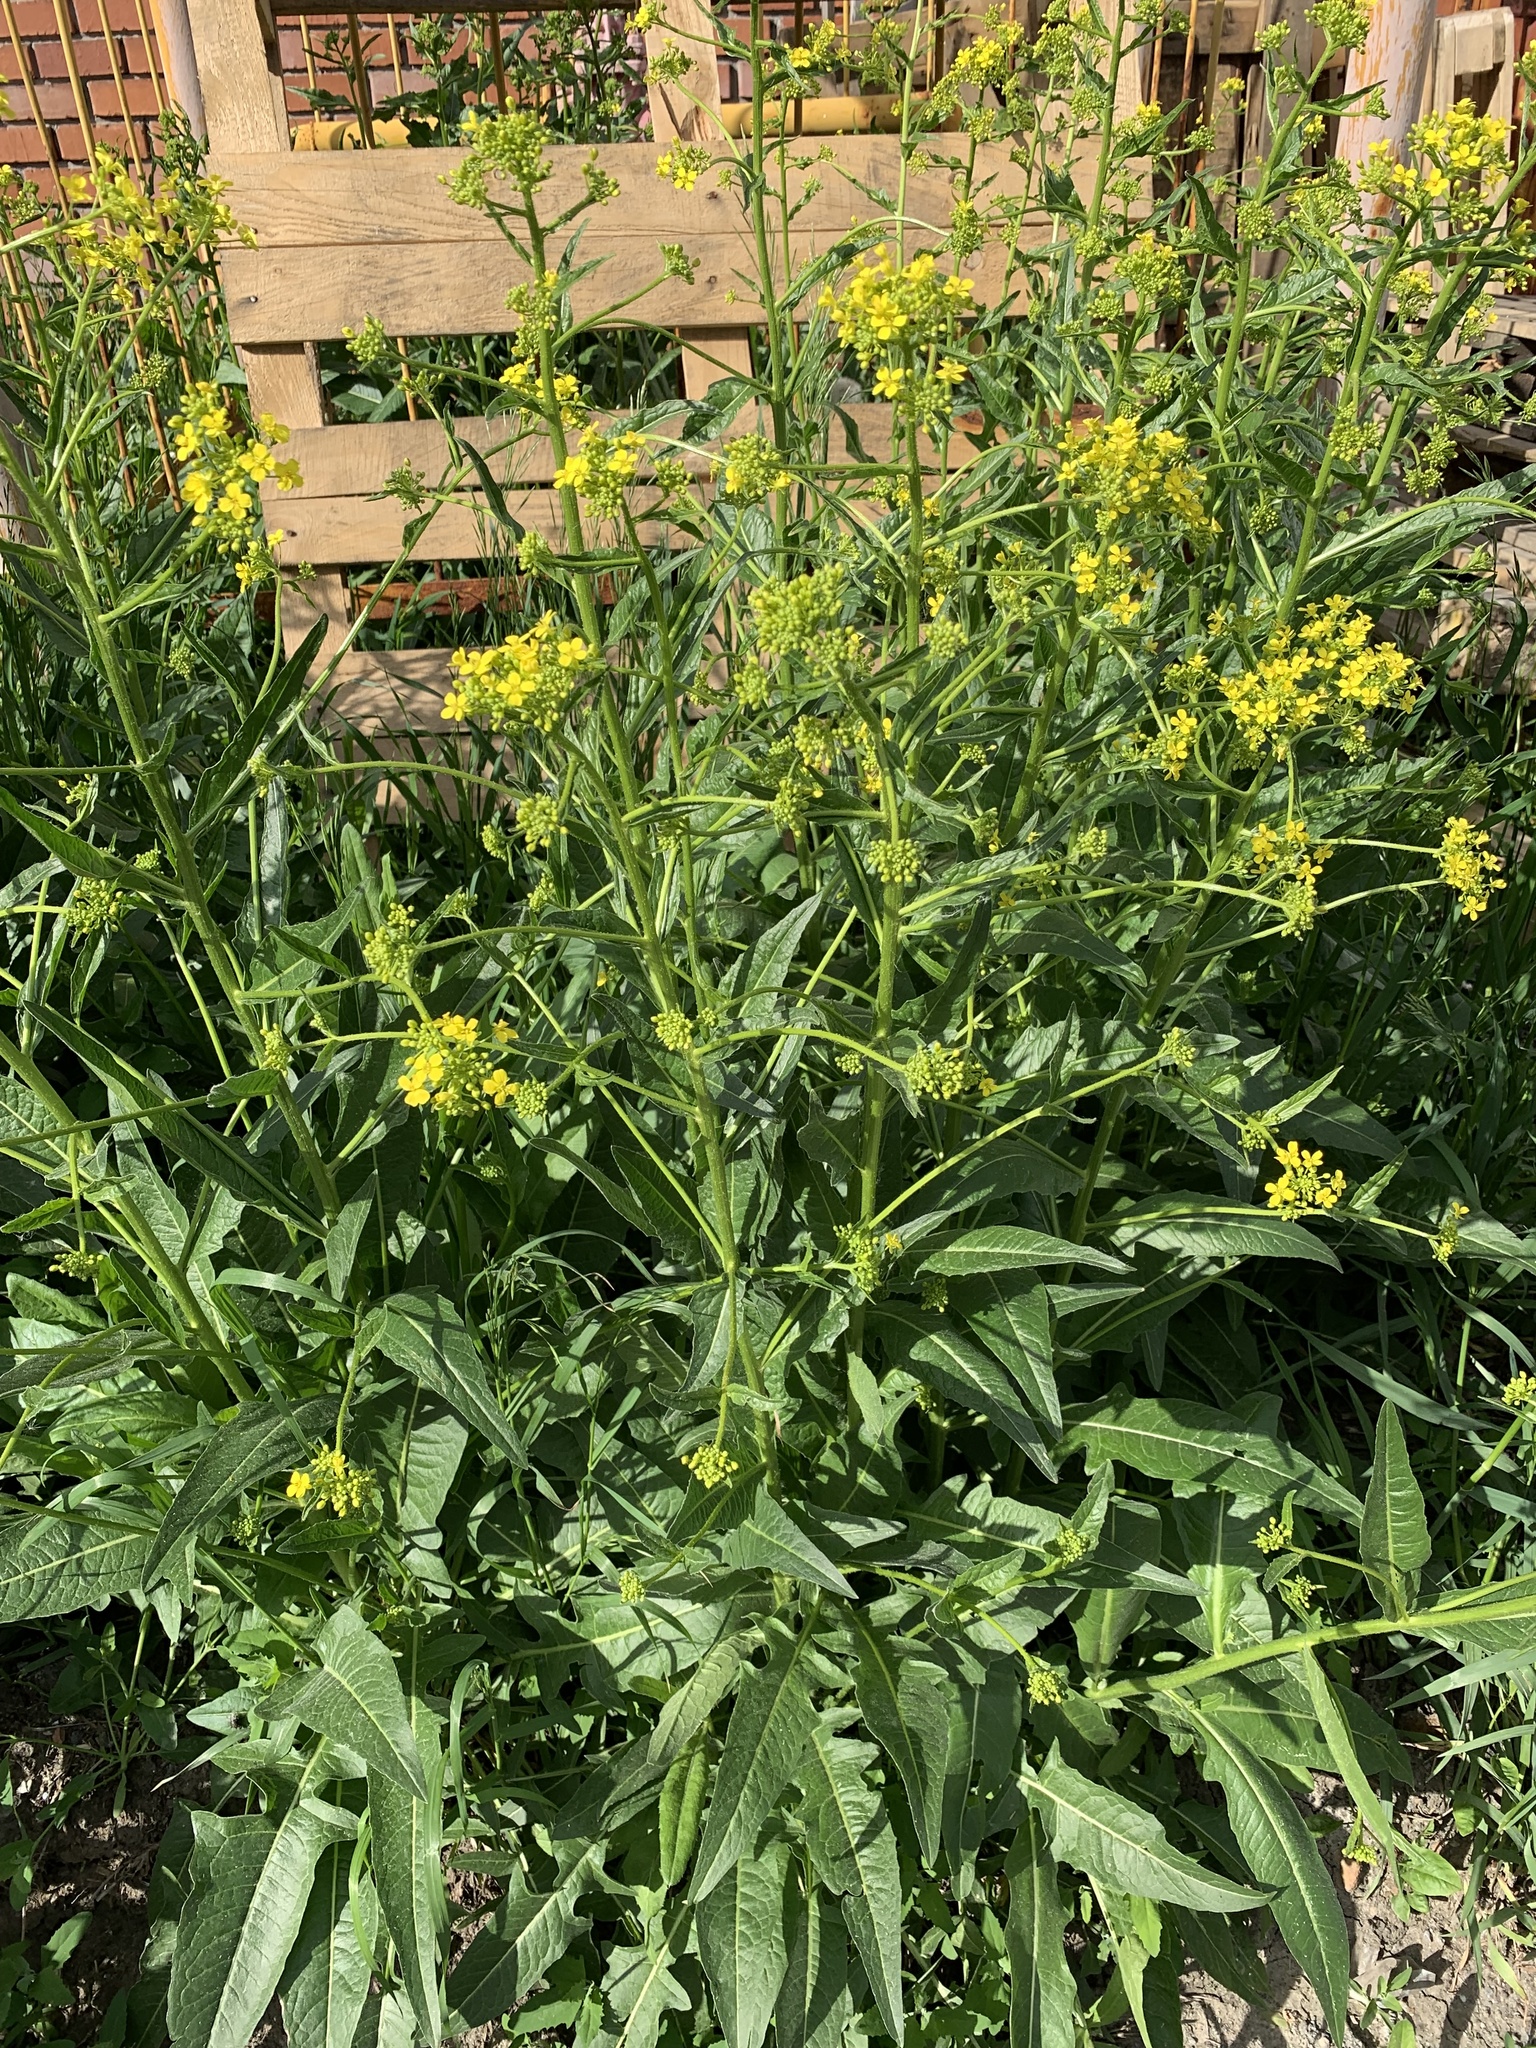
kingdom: Plantae
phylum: Tracheophyta
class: Magnoliopsida
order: Brassicales
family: Brassicaceae
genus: Bunias
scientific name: Bunias orientalis
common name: Warty-cabbage
